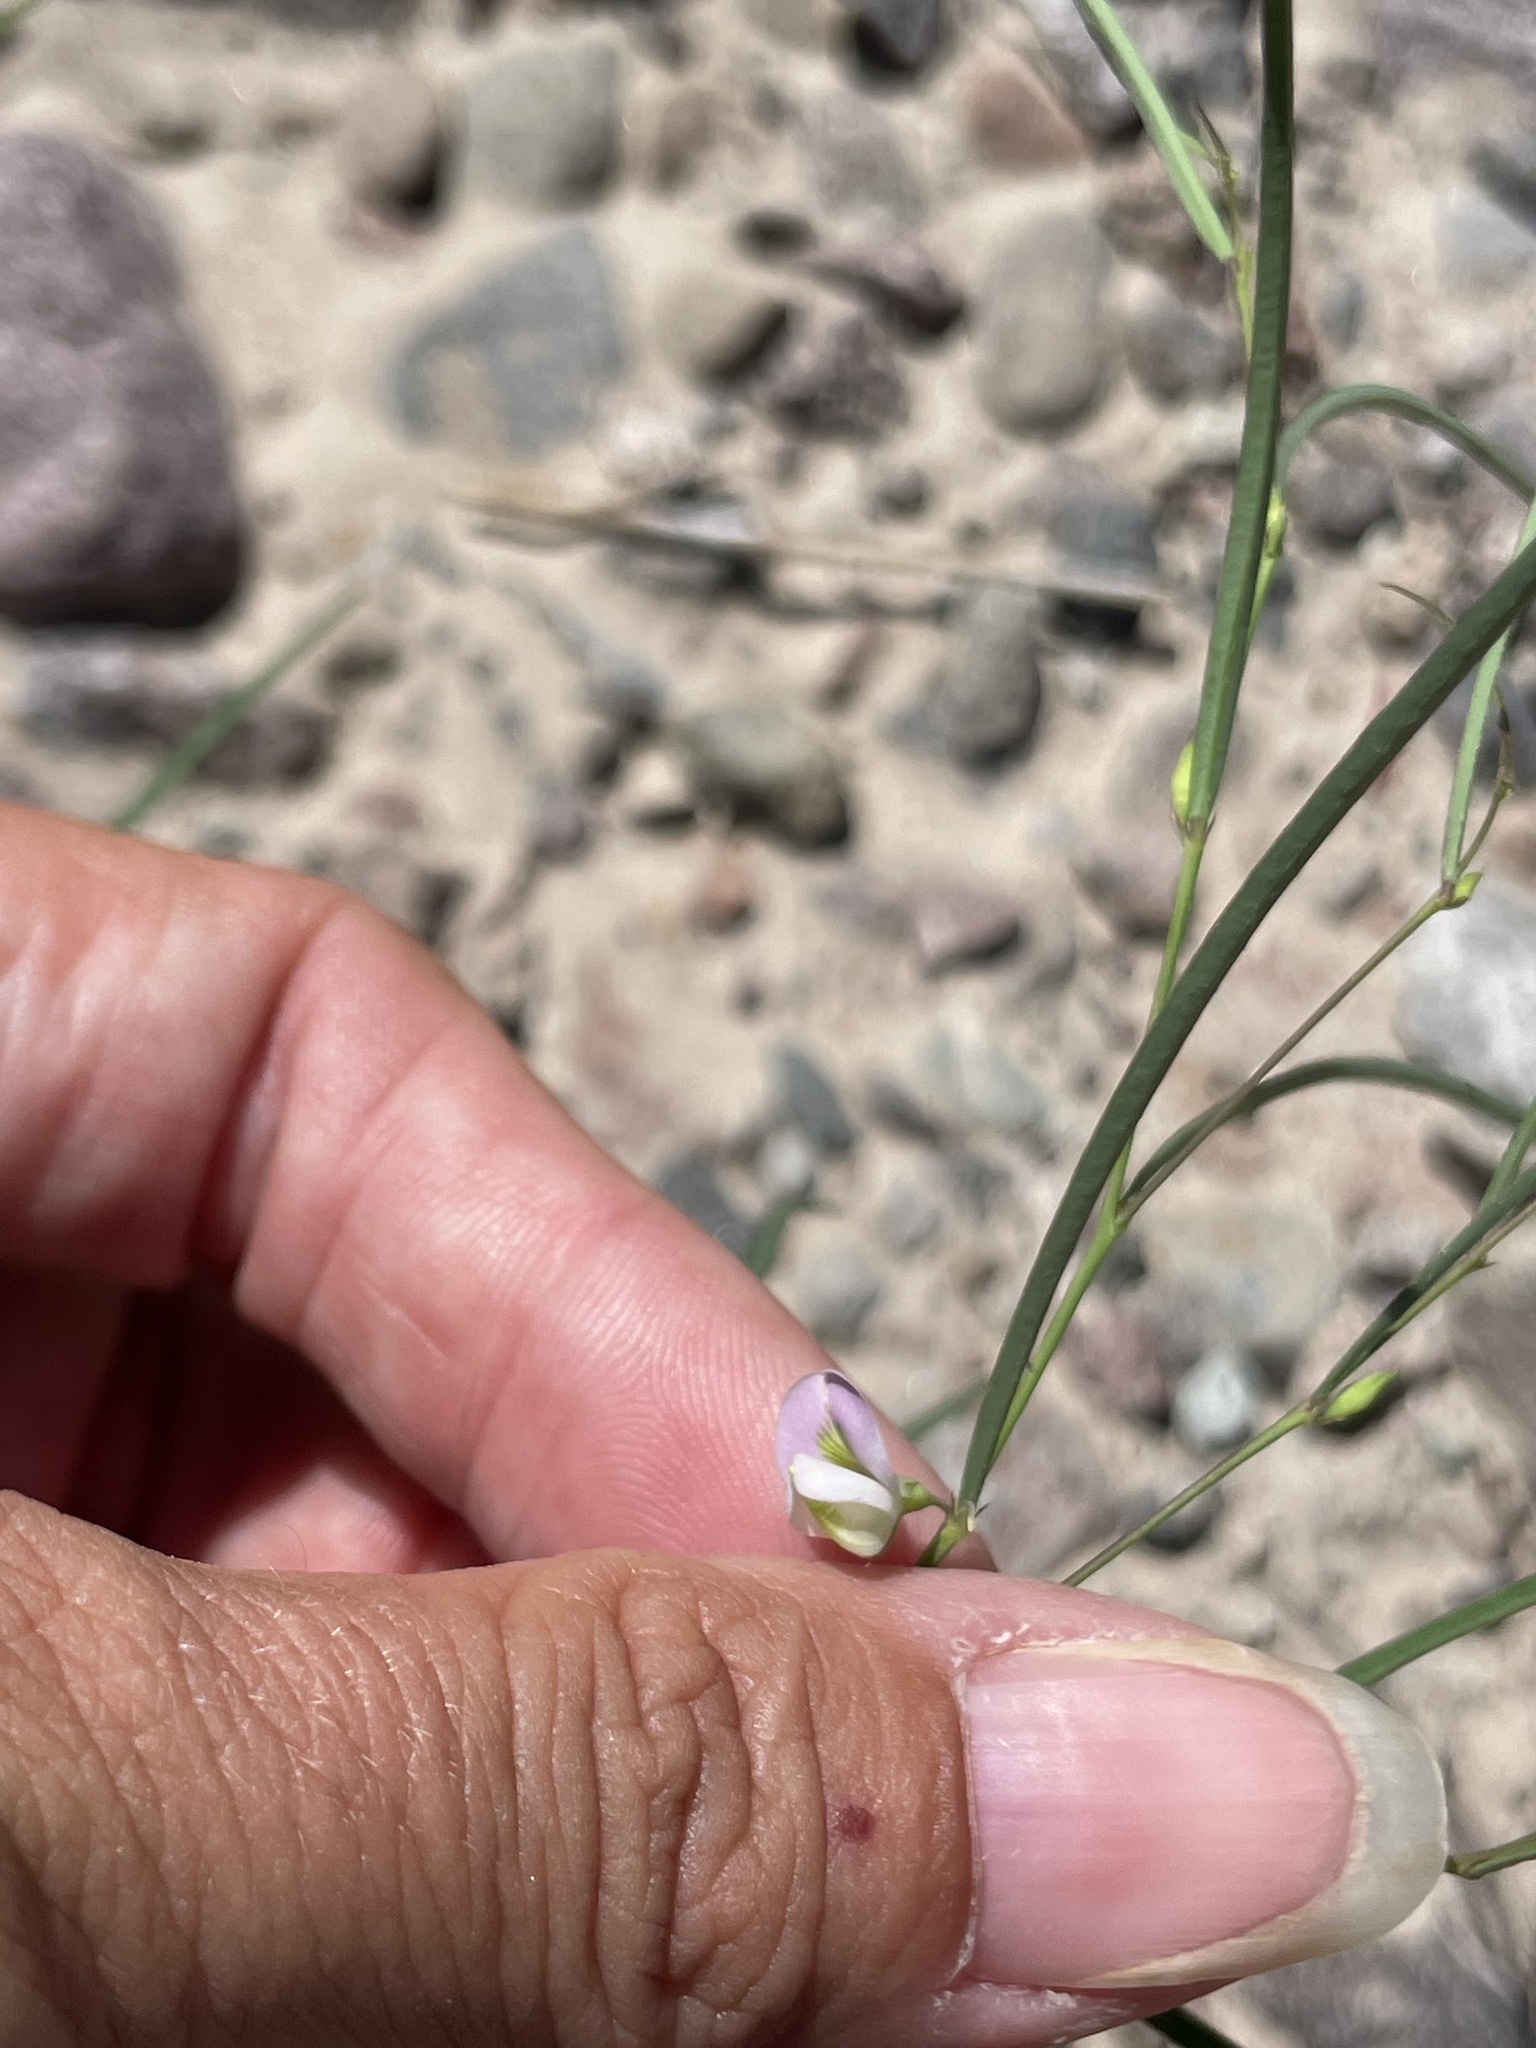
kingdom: Plantae
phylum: Tracheophyta
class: Magnoliopsida
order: Fabales
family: Fabaceae
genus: Sphinctospermum
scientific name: Sphinctospermum constrictum
